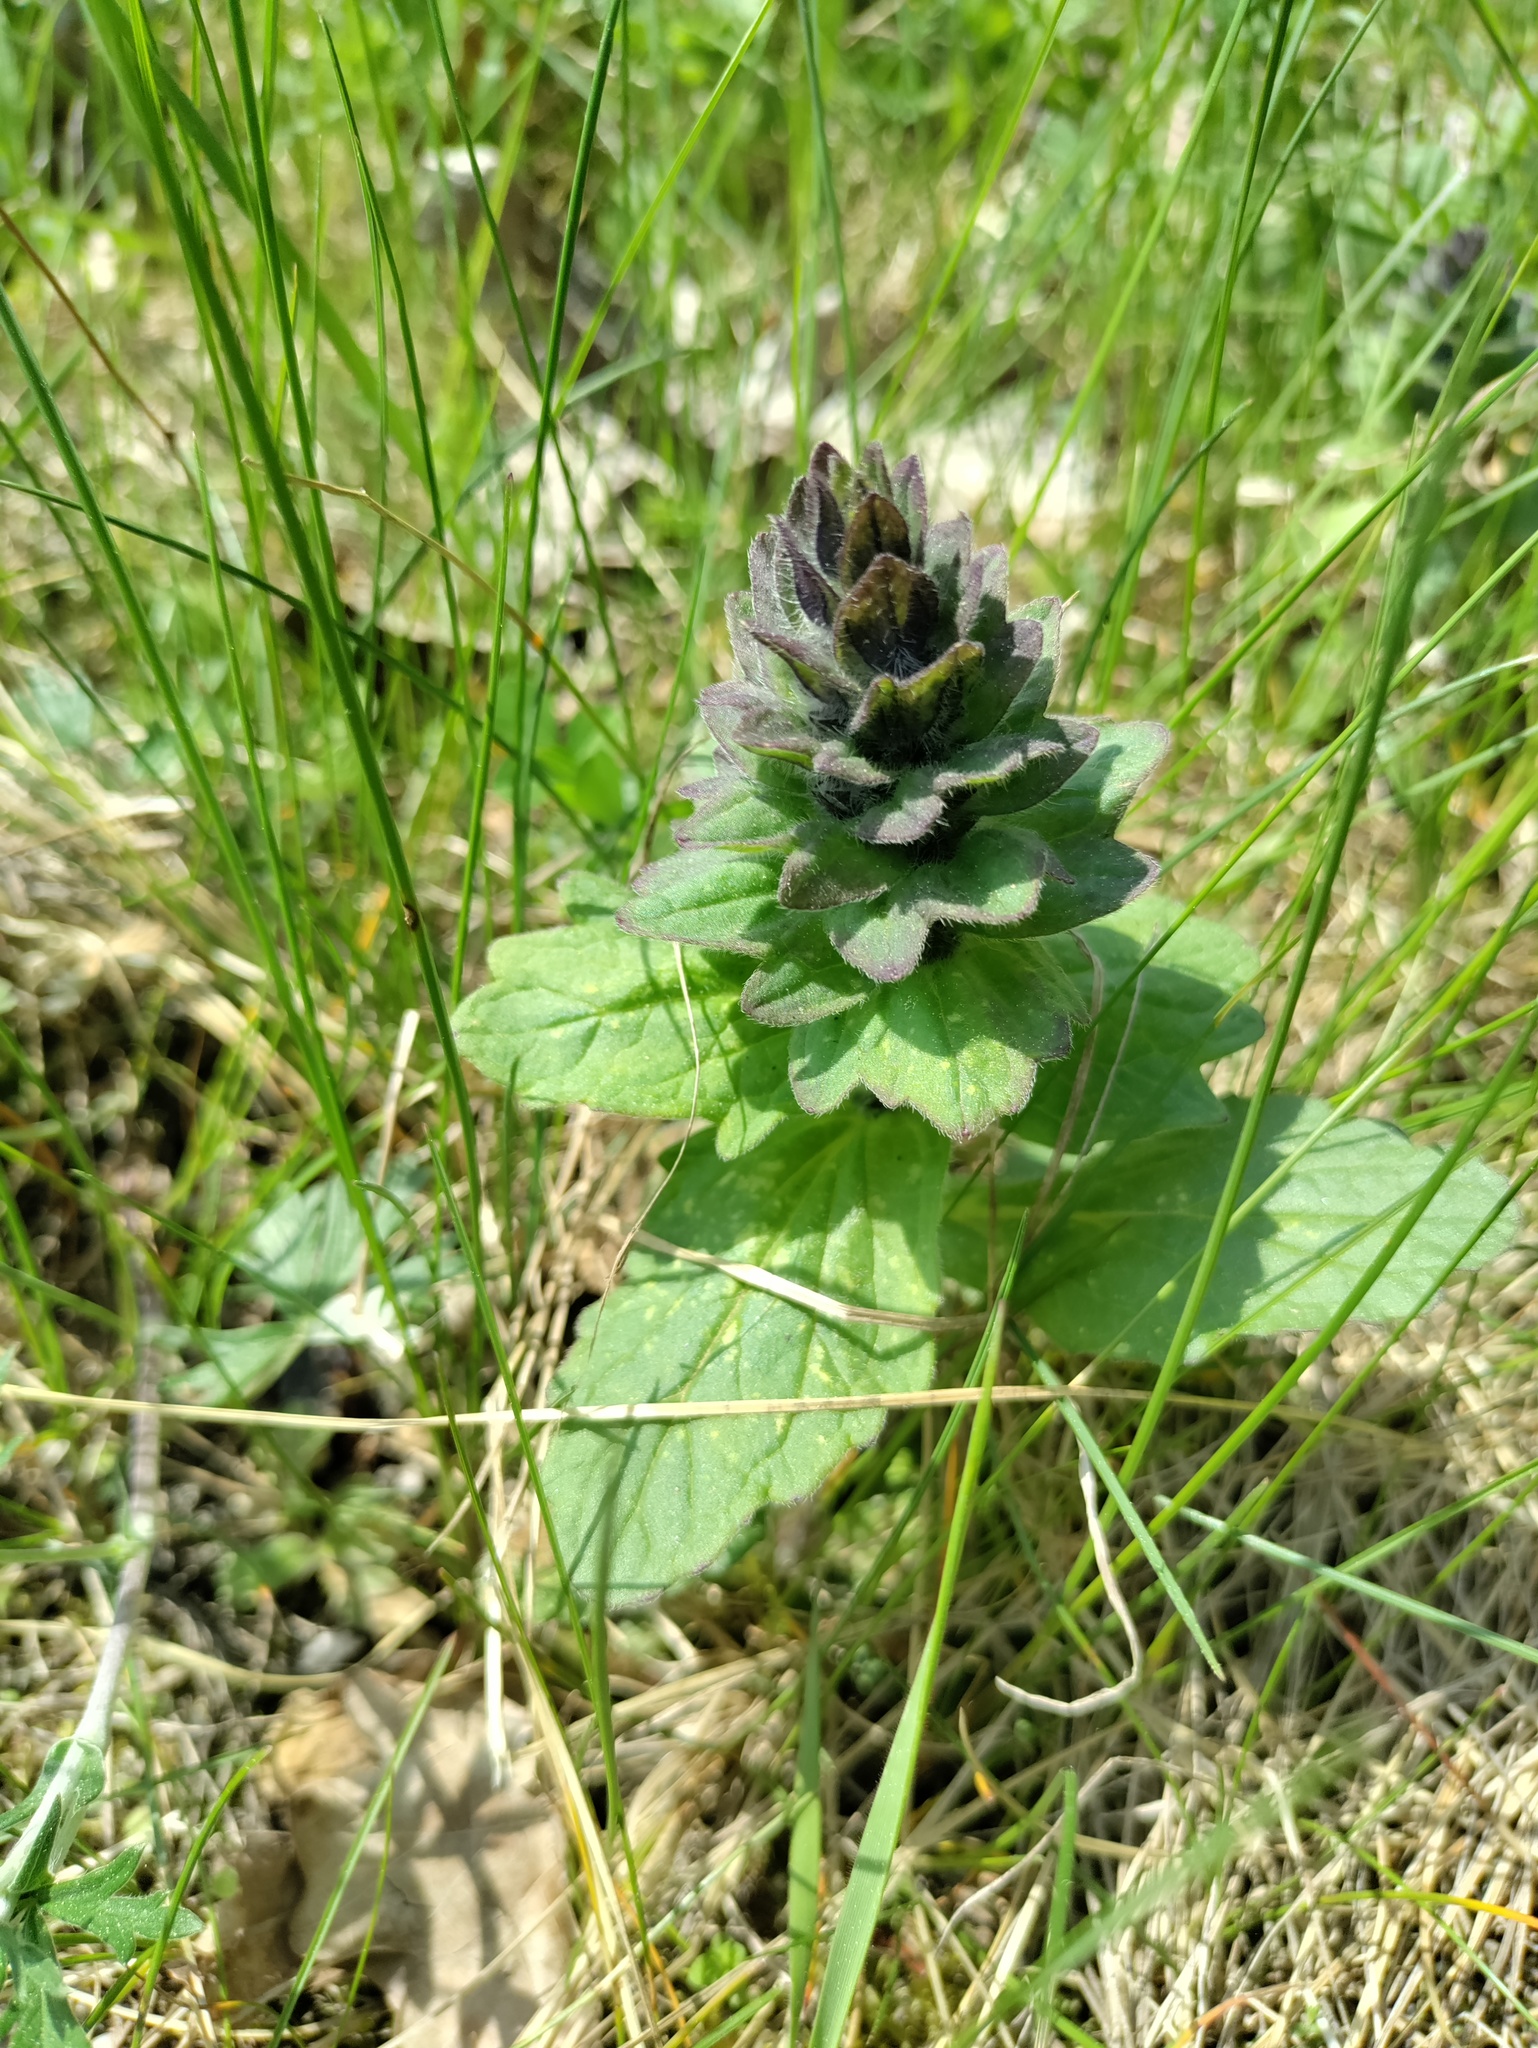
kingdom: Plantae
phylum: Tracheophyta
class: Magnoliopsida
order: Lamiales
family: Lamiaceae
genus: Ajuga
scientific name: Ajuga genevensis
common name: Blue bugle
